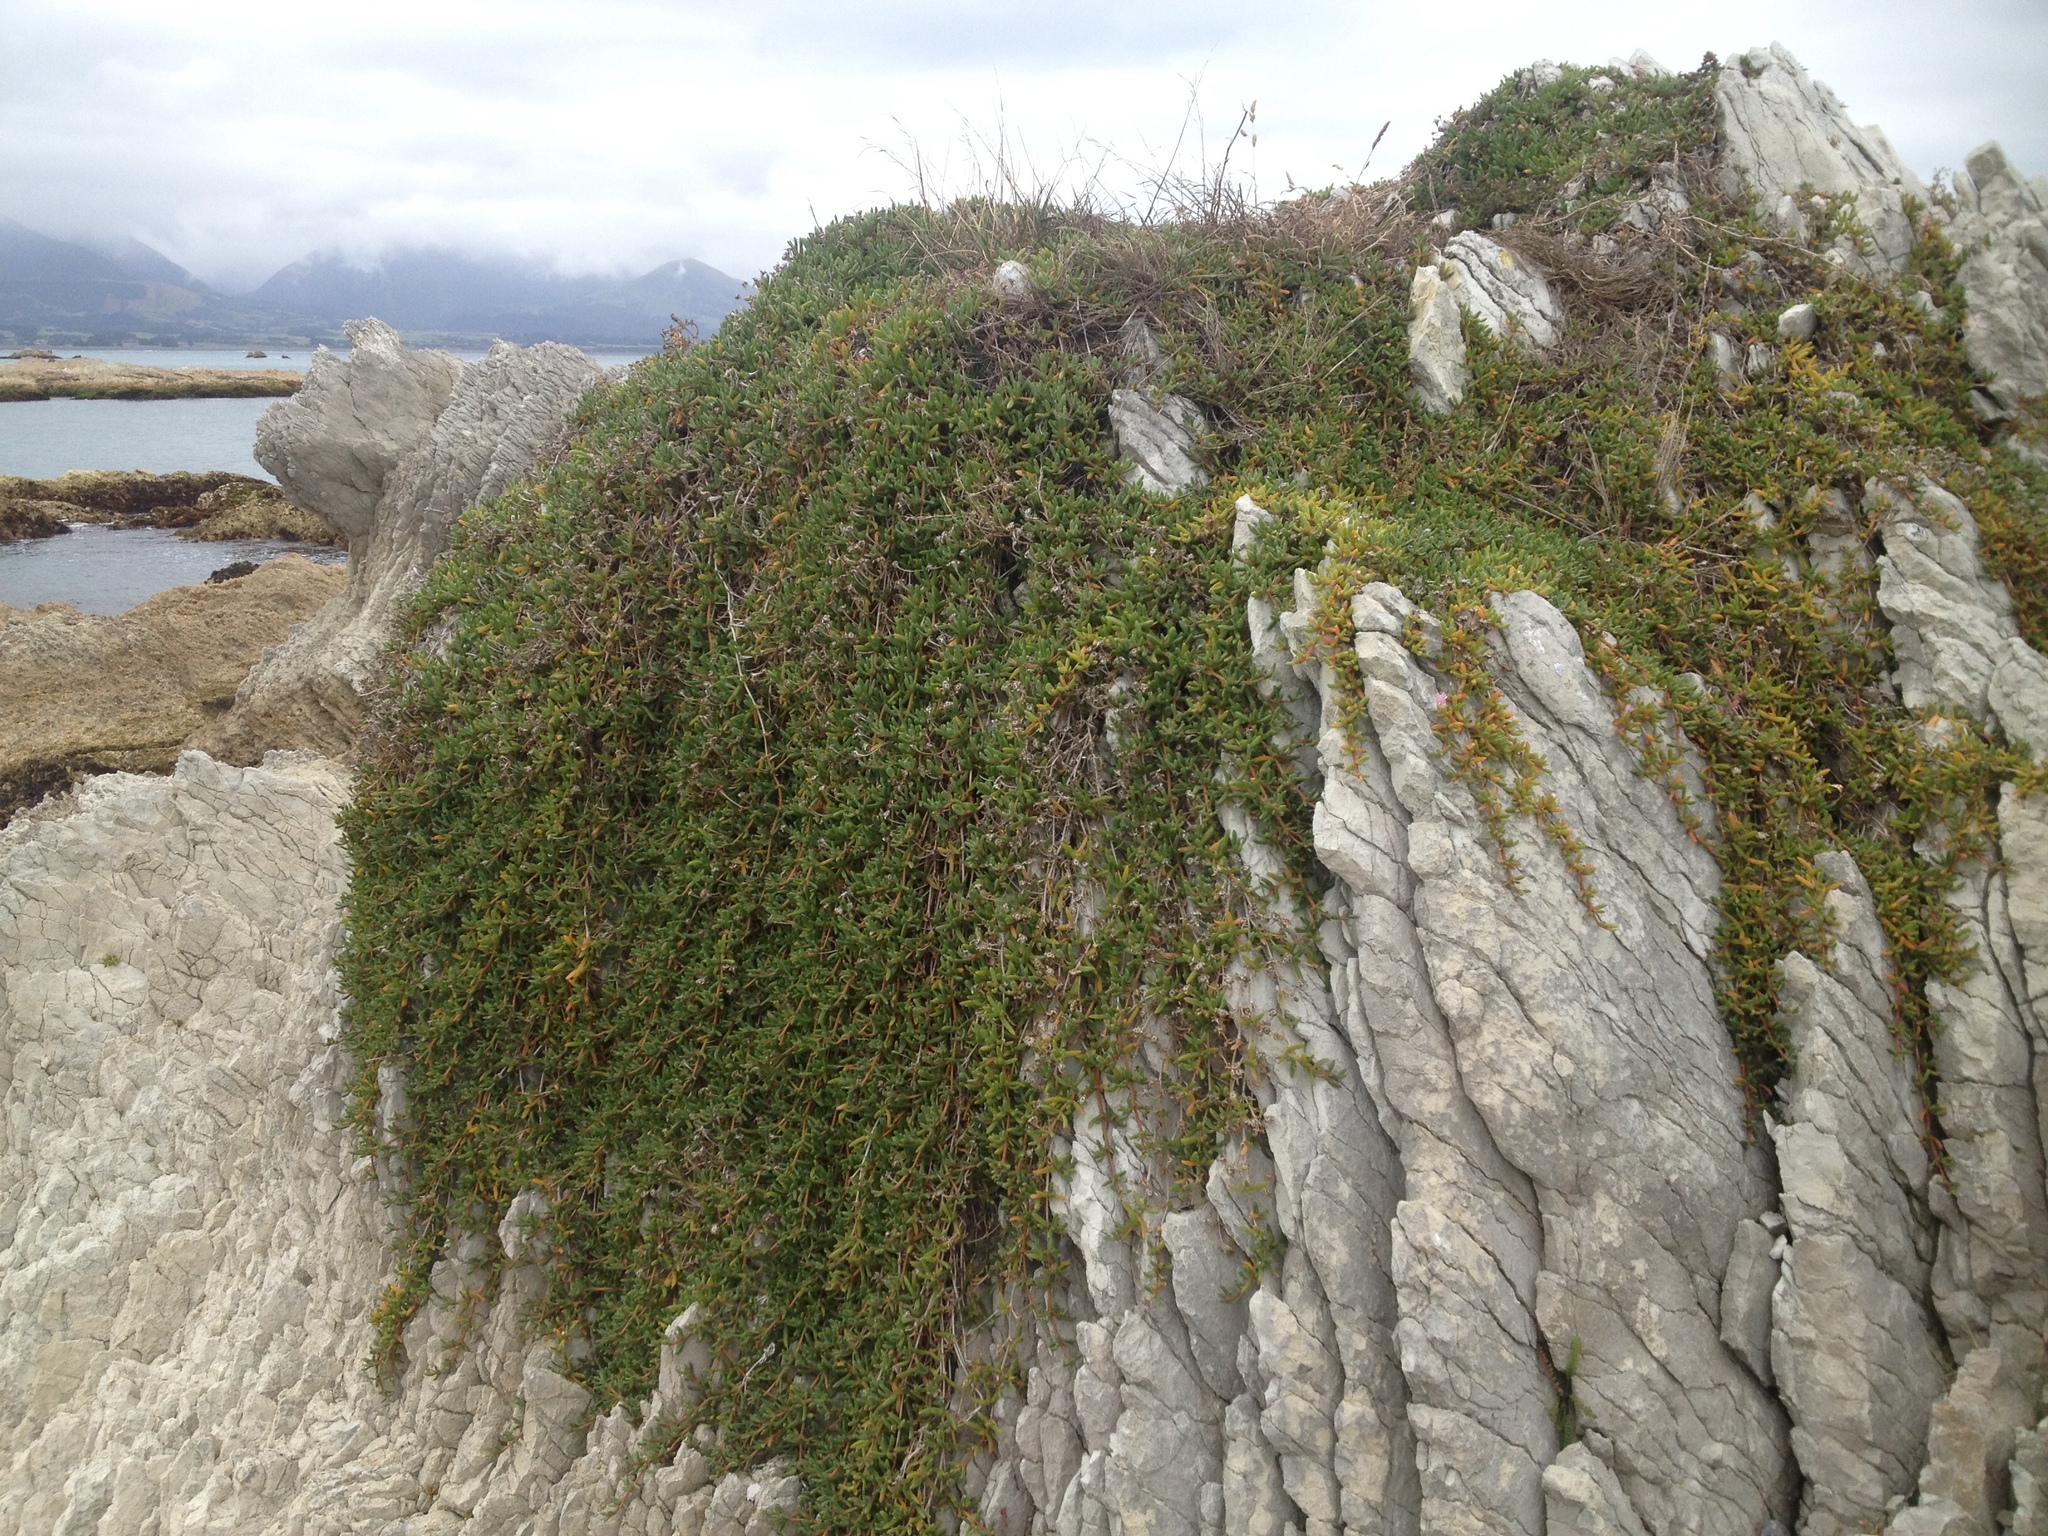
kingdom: Plantae
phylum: Tracheophyta
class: Magnoliopsida
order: Caryophyllales
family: Aizoaceae
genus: Disphyma
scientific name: Disphyma australe
